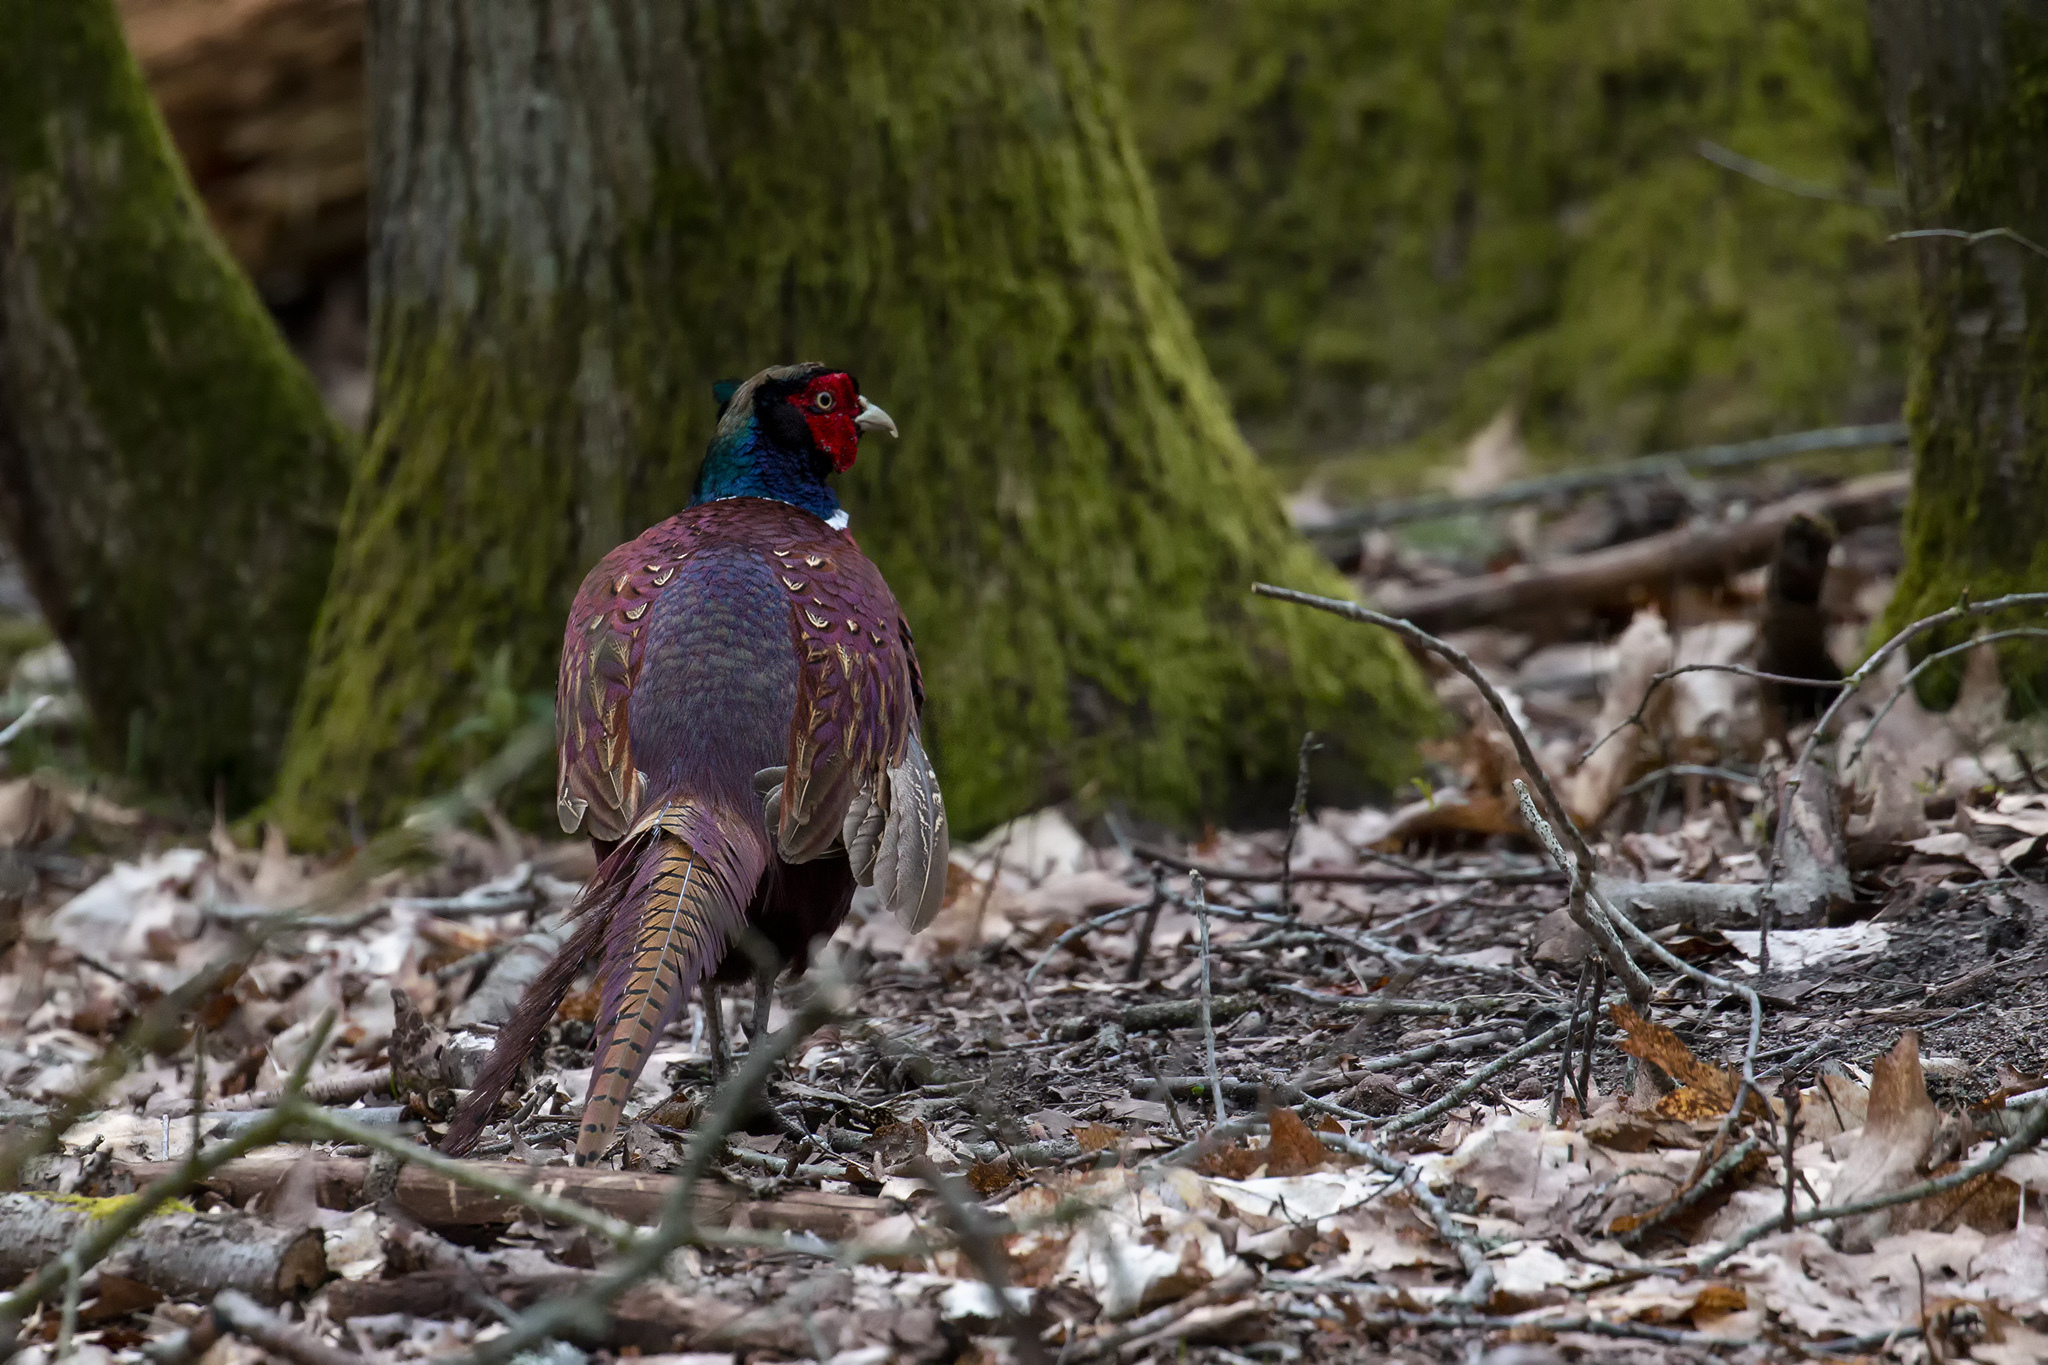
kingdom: Animalia
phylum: Chordata
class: Aves
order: Galliformes
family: Phasianidae
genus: Phasianus
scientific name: Phasianus colchicus
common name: Common pheasant
